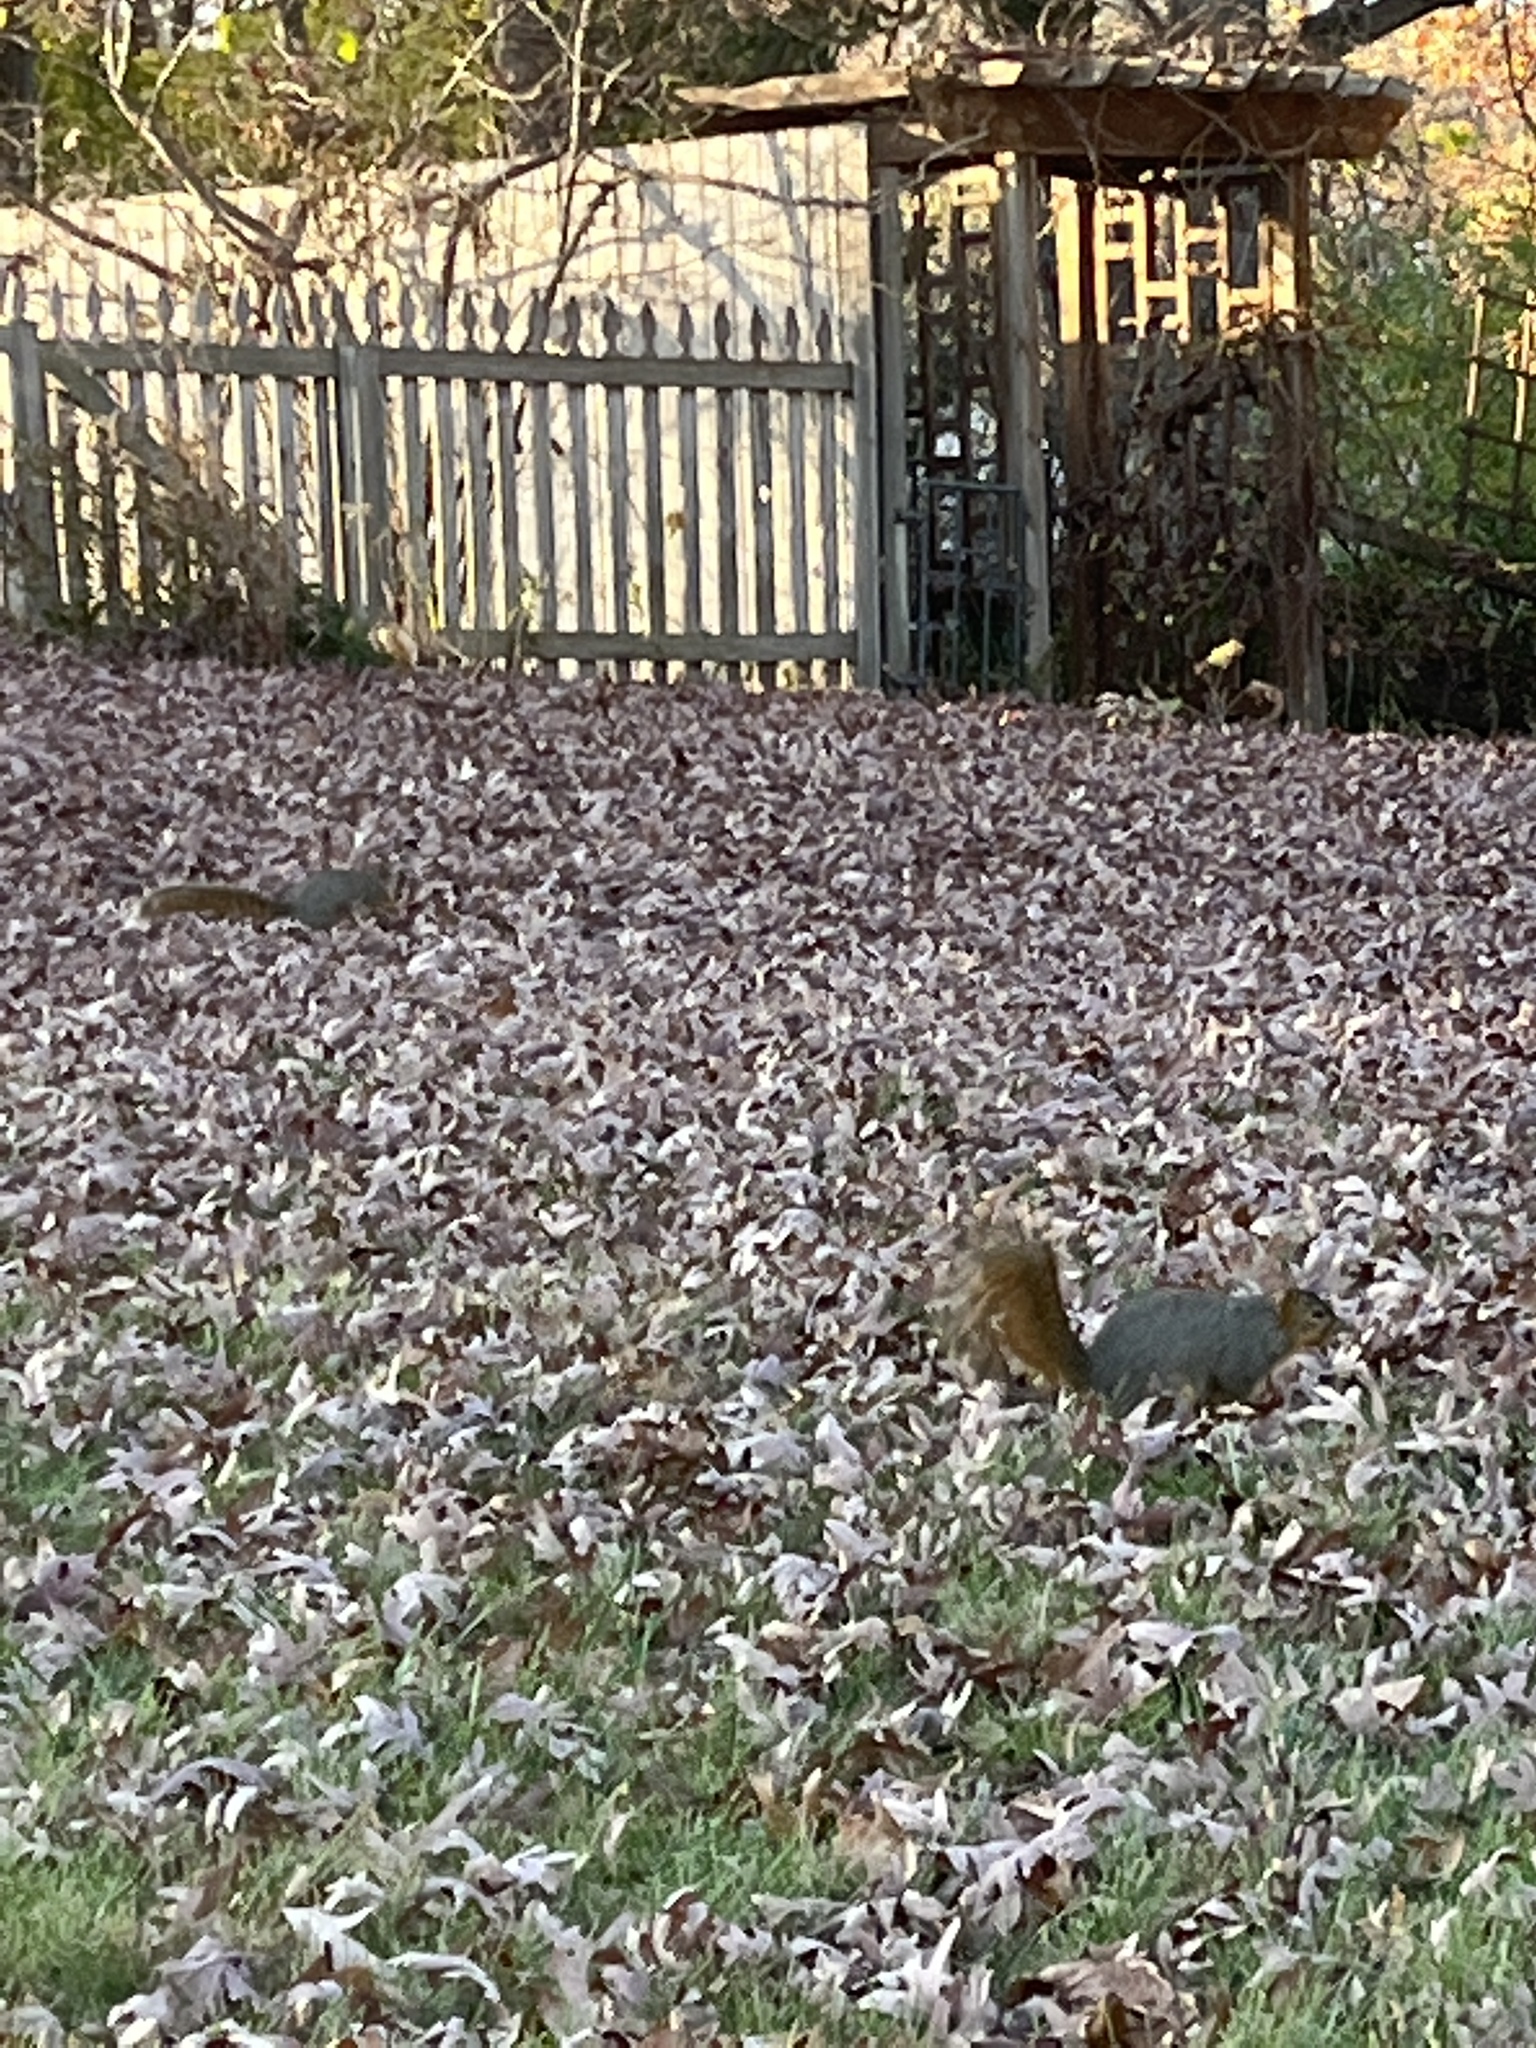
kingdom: Animalia
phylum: Chordata
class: Mammalia
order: Rodentia
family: Sciuridae
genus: Sciurus
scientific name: Sciurus niger
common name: Fox squirrel
